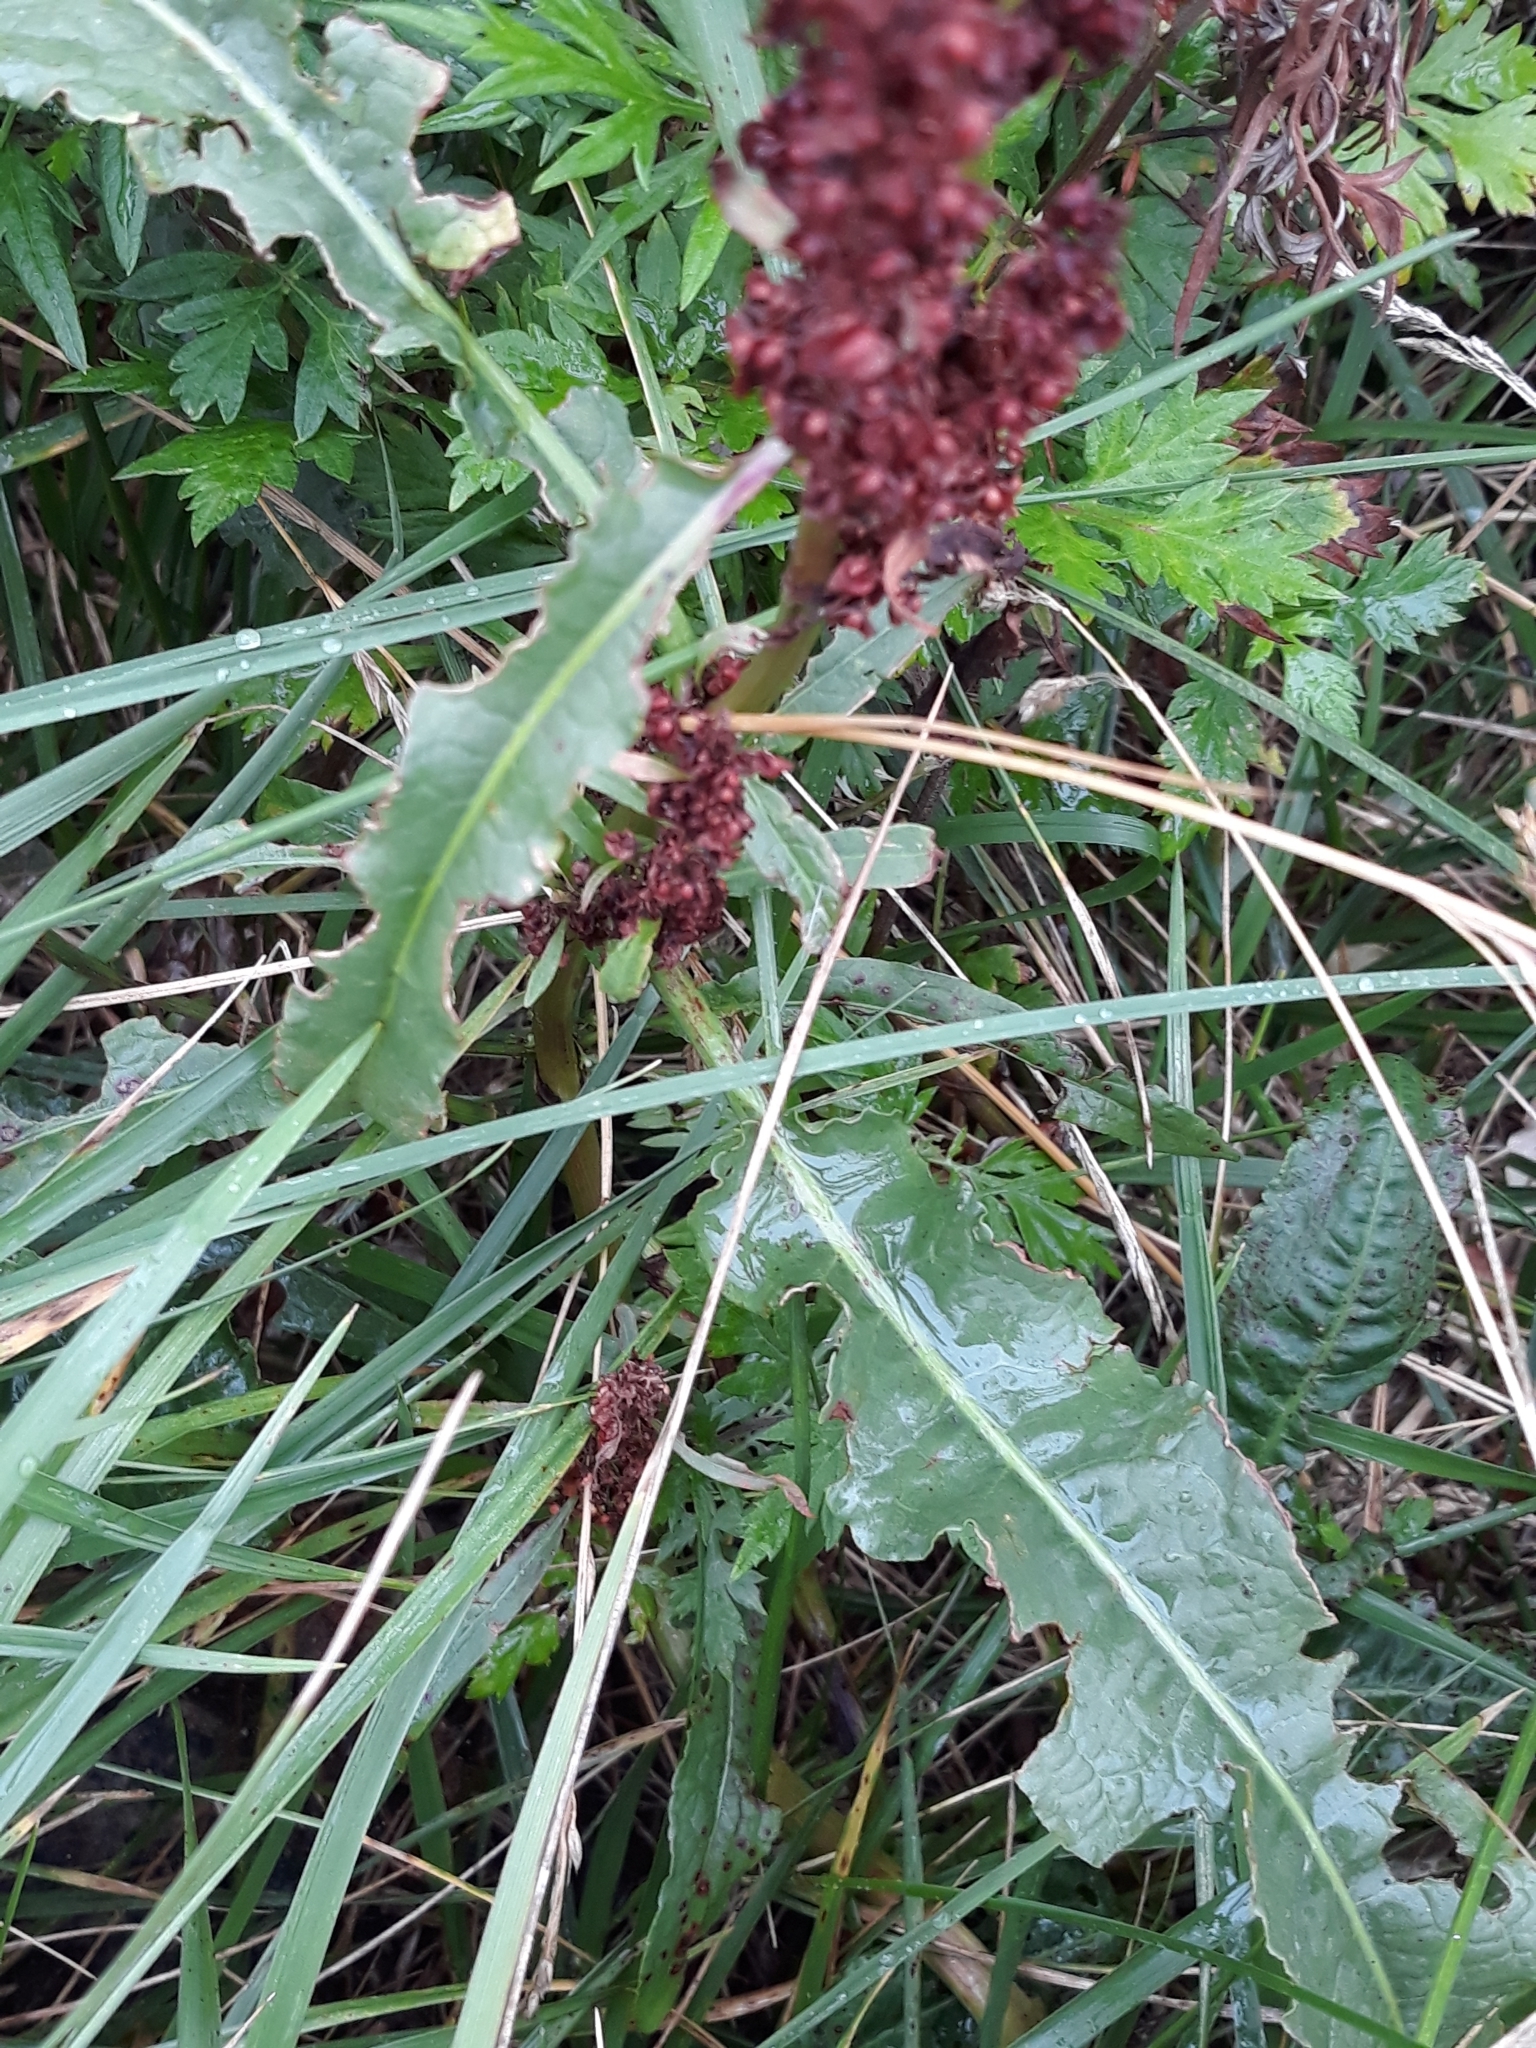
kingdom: Plantae
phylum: Tracheophyta
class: Magnoliopsida
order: Caryophyllales
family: Polygonaceae
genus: Rumex
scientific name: Rumex crispus
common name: Curled dock
